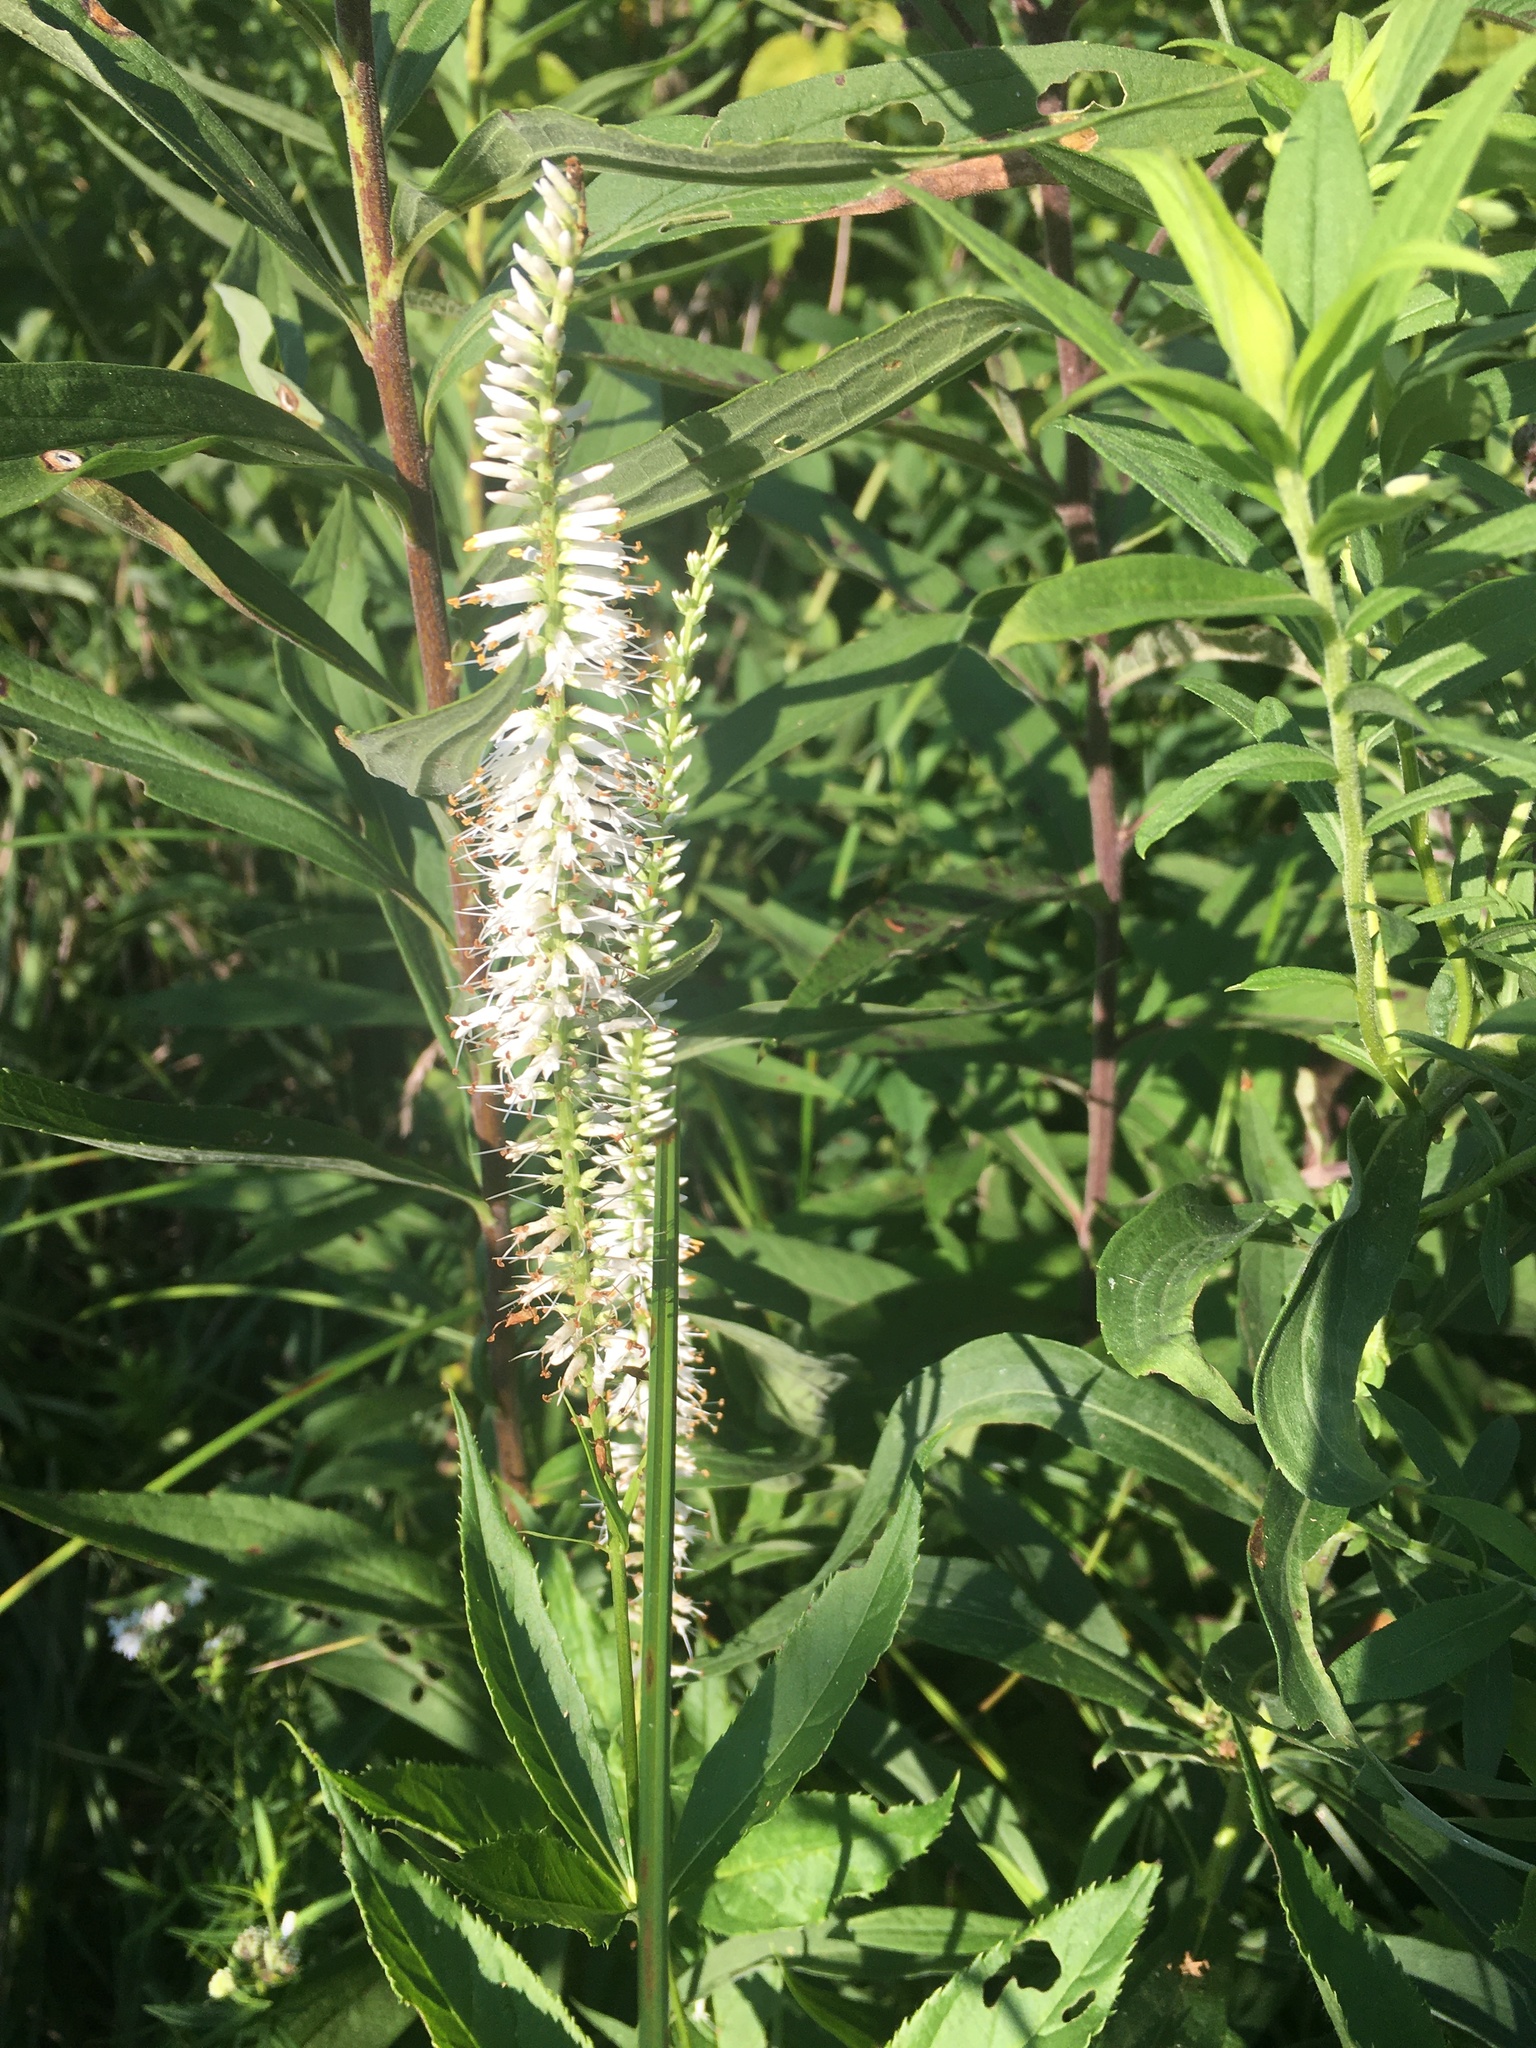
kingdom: Plantae
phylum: Tracheophyta
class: Magnoliopsida
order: Lamiales
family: Plantaginaceae
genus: Veronicastrum
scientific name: Veronicastrum virginicum
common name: Blackroot
